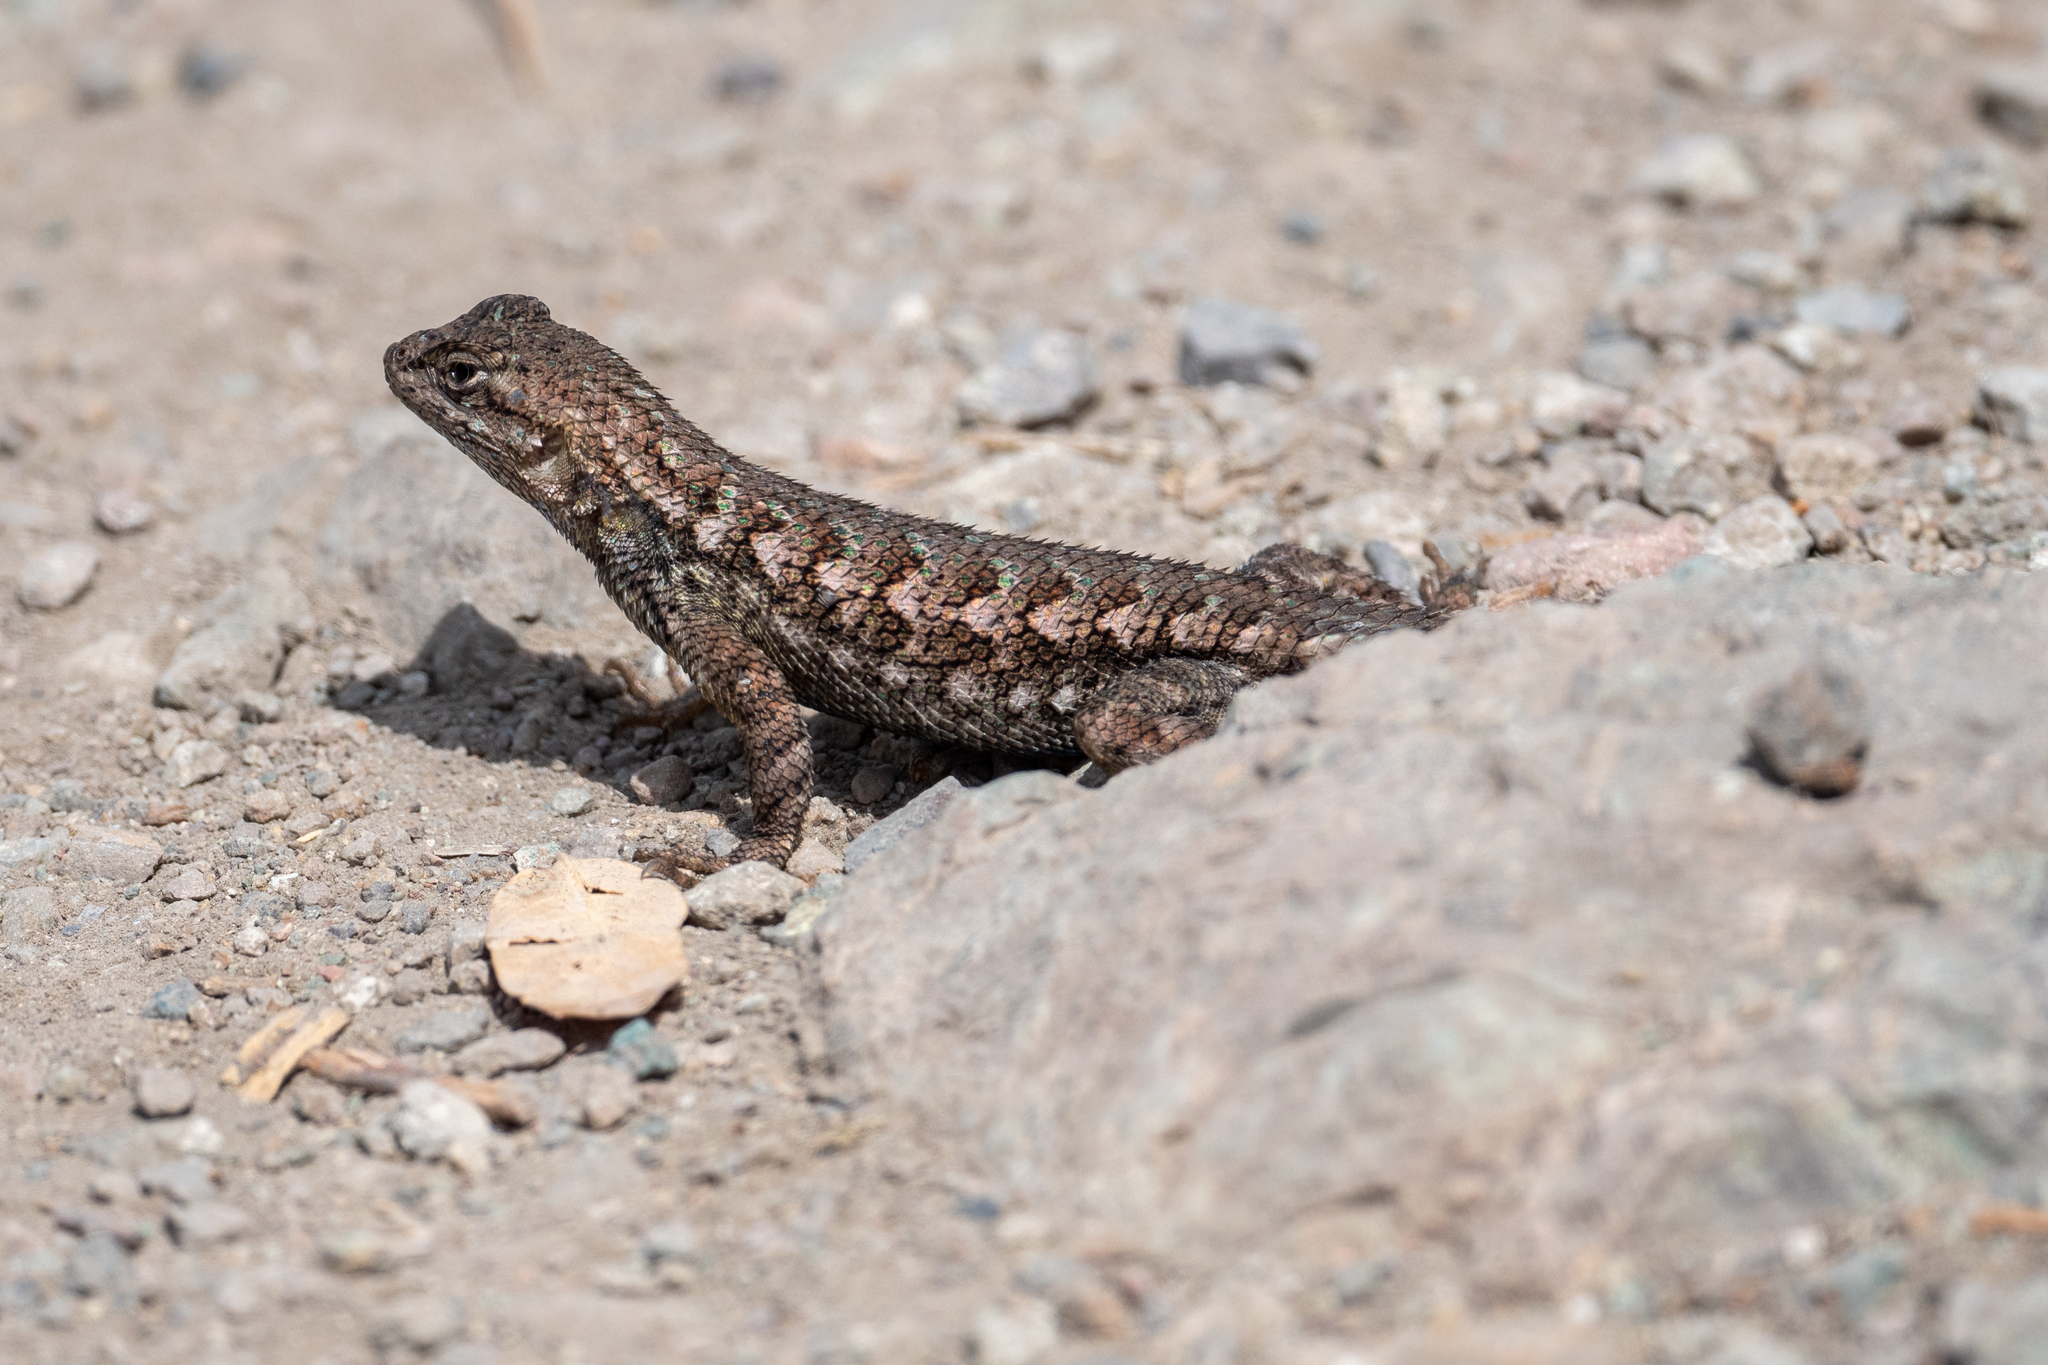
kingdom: Animalia
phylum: Chordata
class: Squamata
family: Phrynosomatidae
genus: Sceloporus
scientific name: Sceloporus occidentalis
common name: Western fence lizard
